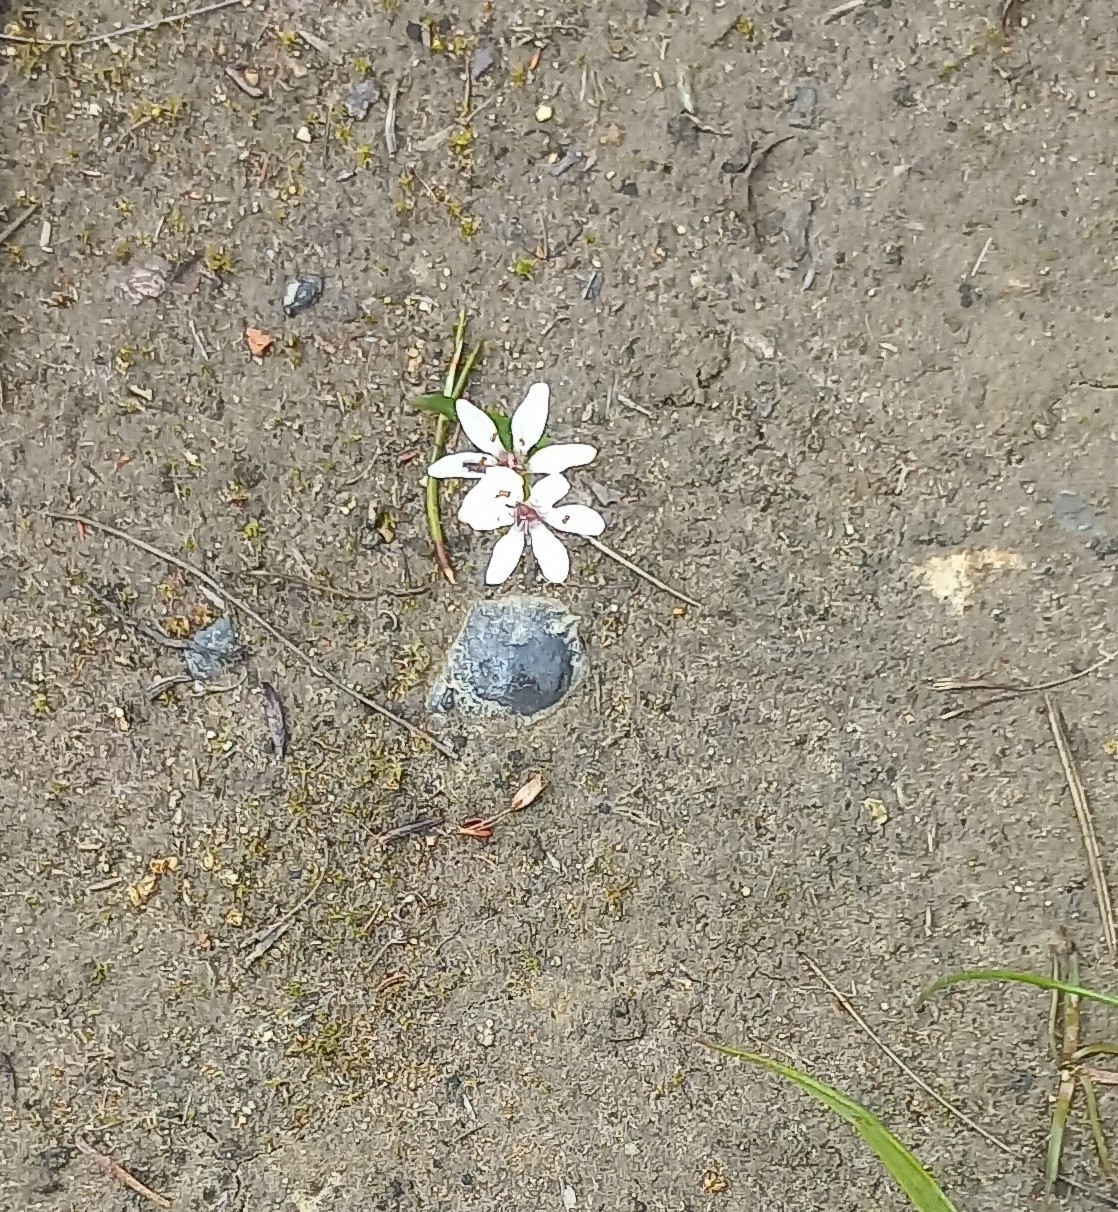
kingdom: Plantae
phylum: Tracheophyta
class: Liliopsida
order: Liliales
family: Colchicaceae
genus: Wurmbea
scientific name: Wurmbea punctata
